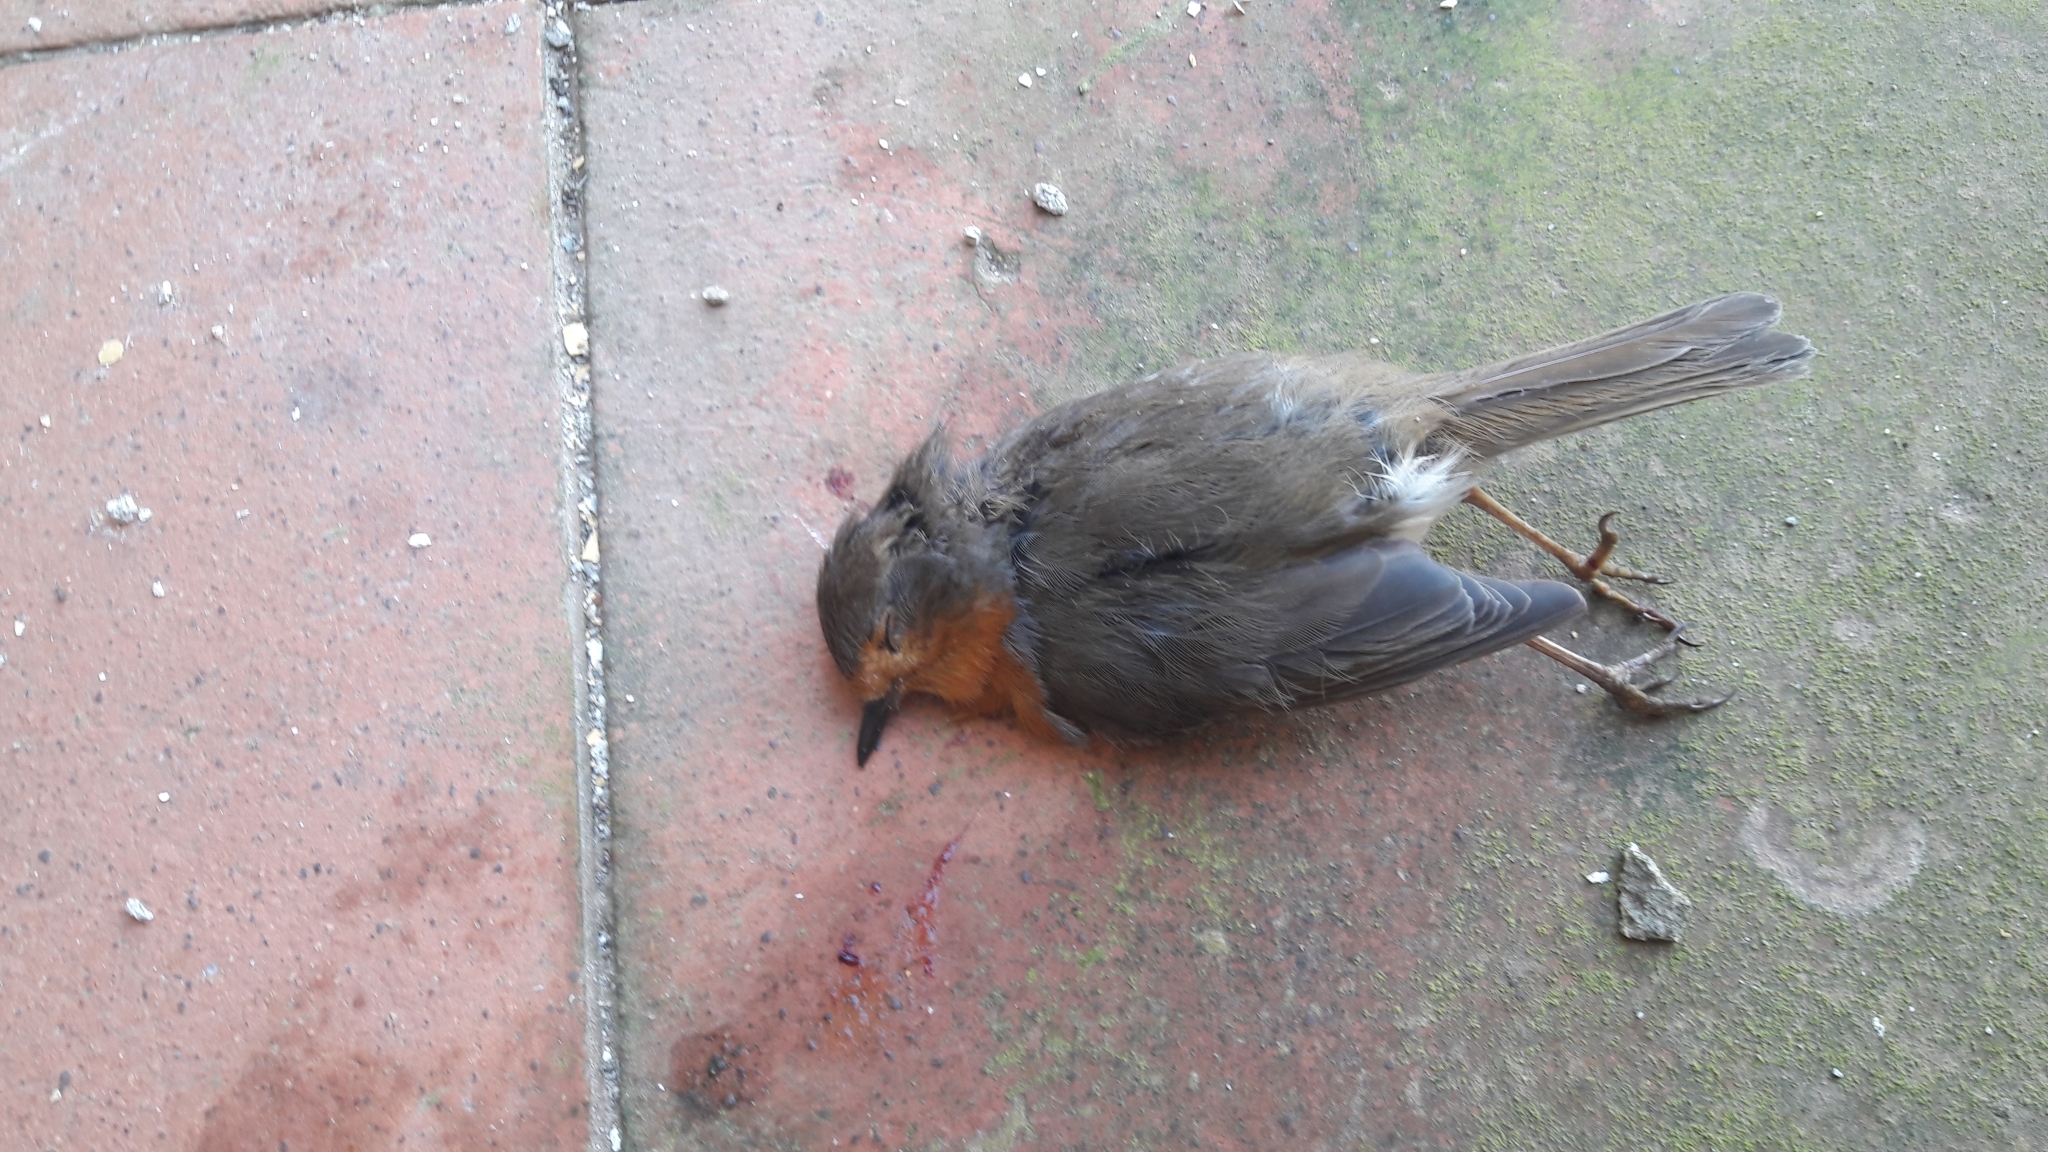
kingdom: Animalia
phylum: Chordata
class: Aves
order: Passeriformes
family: Muscicapidae
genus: Erithacus
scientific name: Erithacus rubecula
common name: European robin
